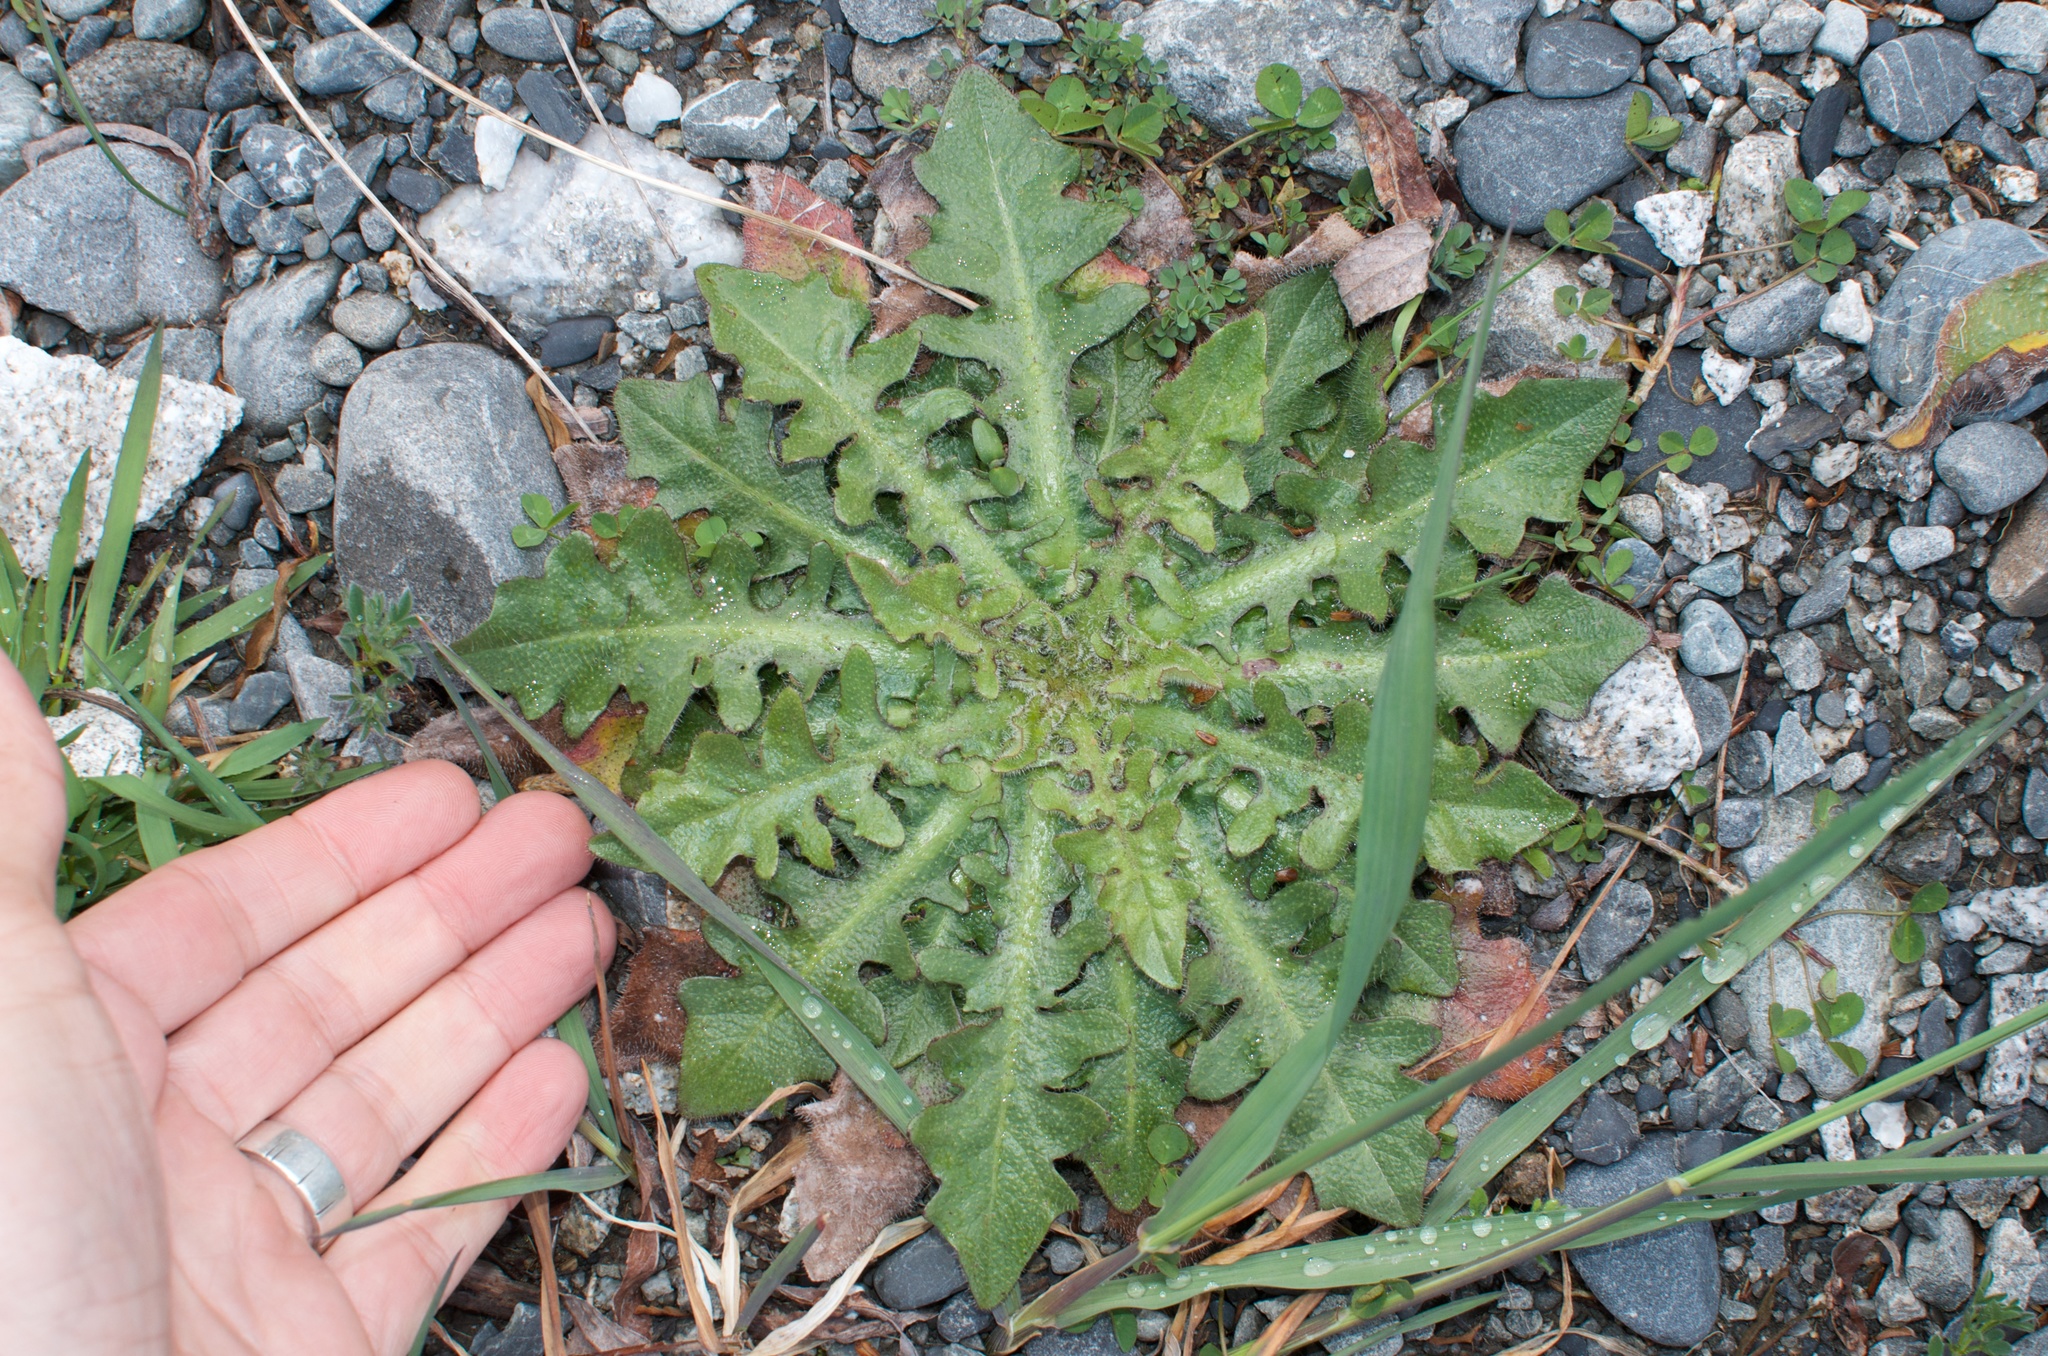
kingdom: Plantae
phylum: Tracheophyta
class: Magnoliopsida
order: Asterales
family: Asteraceae
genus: Hypochaeris
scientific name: Hypochaeris radicata
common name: Flatweed
